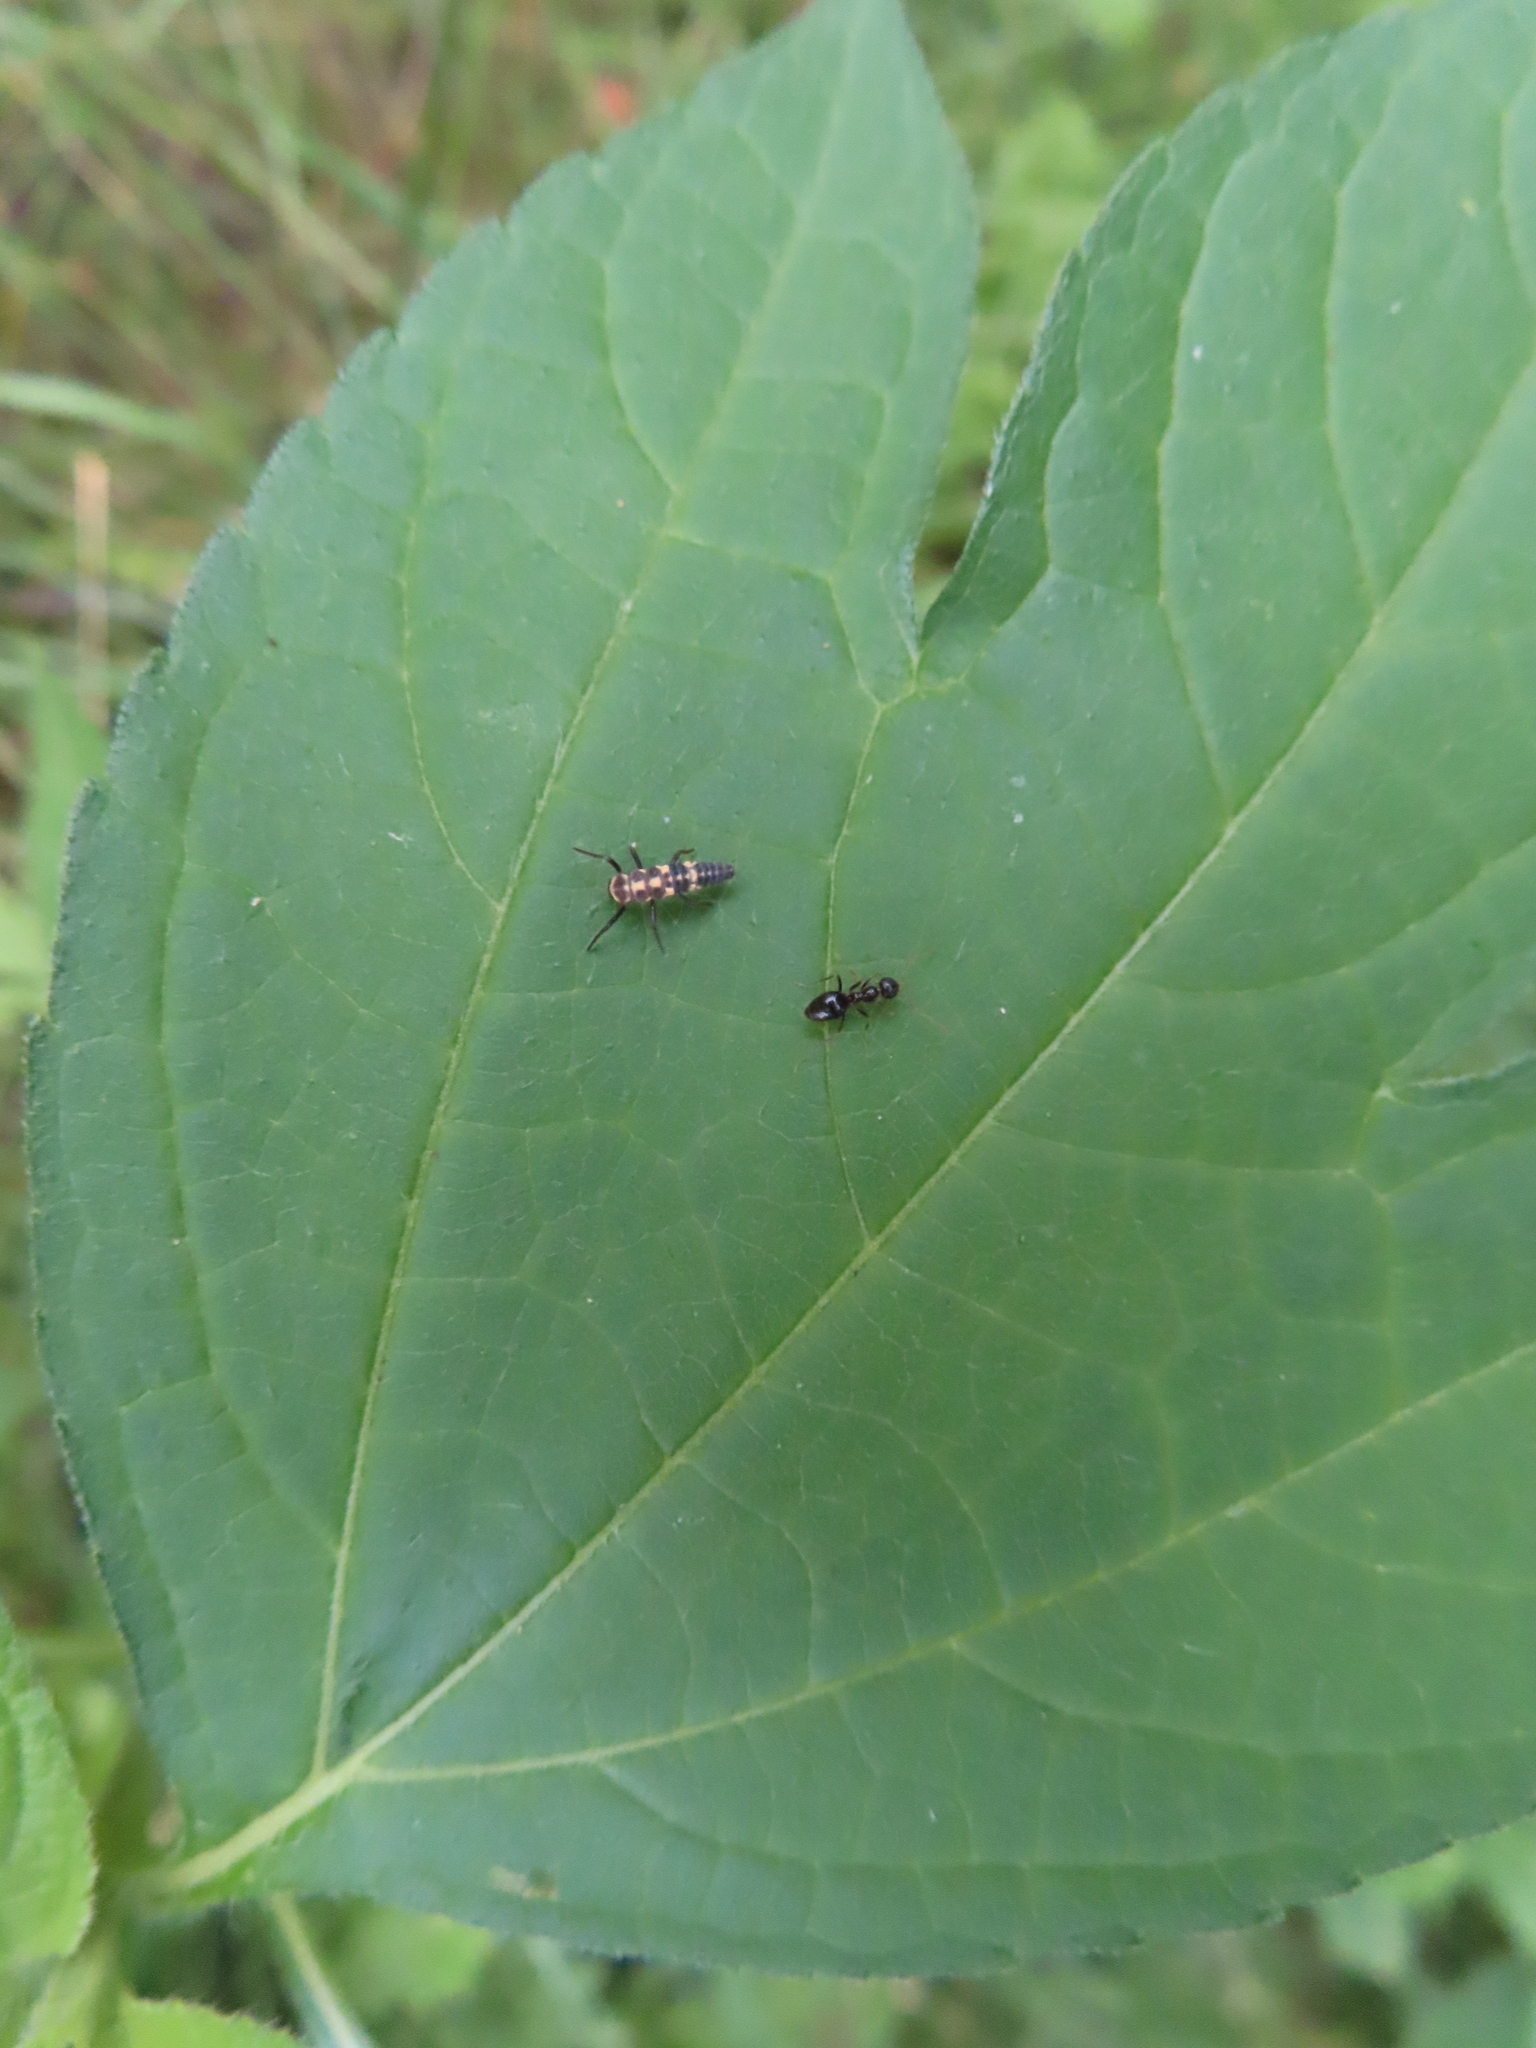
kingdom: Animalia
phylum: Arthropoda
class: Insecta
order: Hymenoptera
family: Formicidae
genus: Prenolepis
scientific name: Prenolepis imparis
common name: Small honey ant
